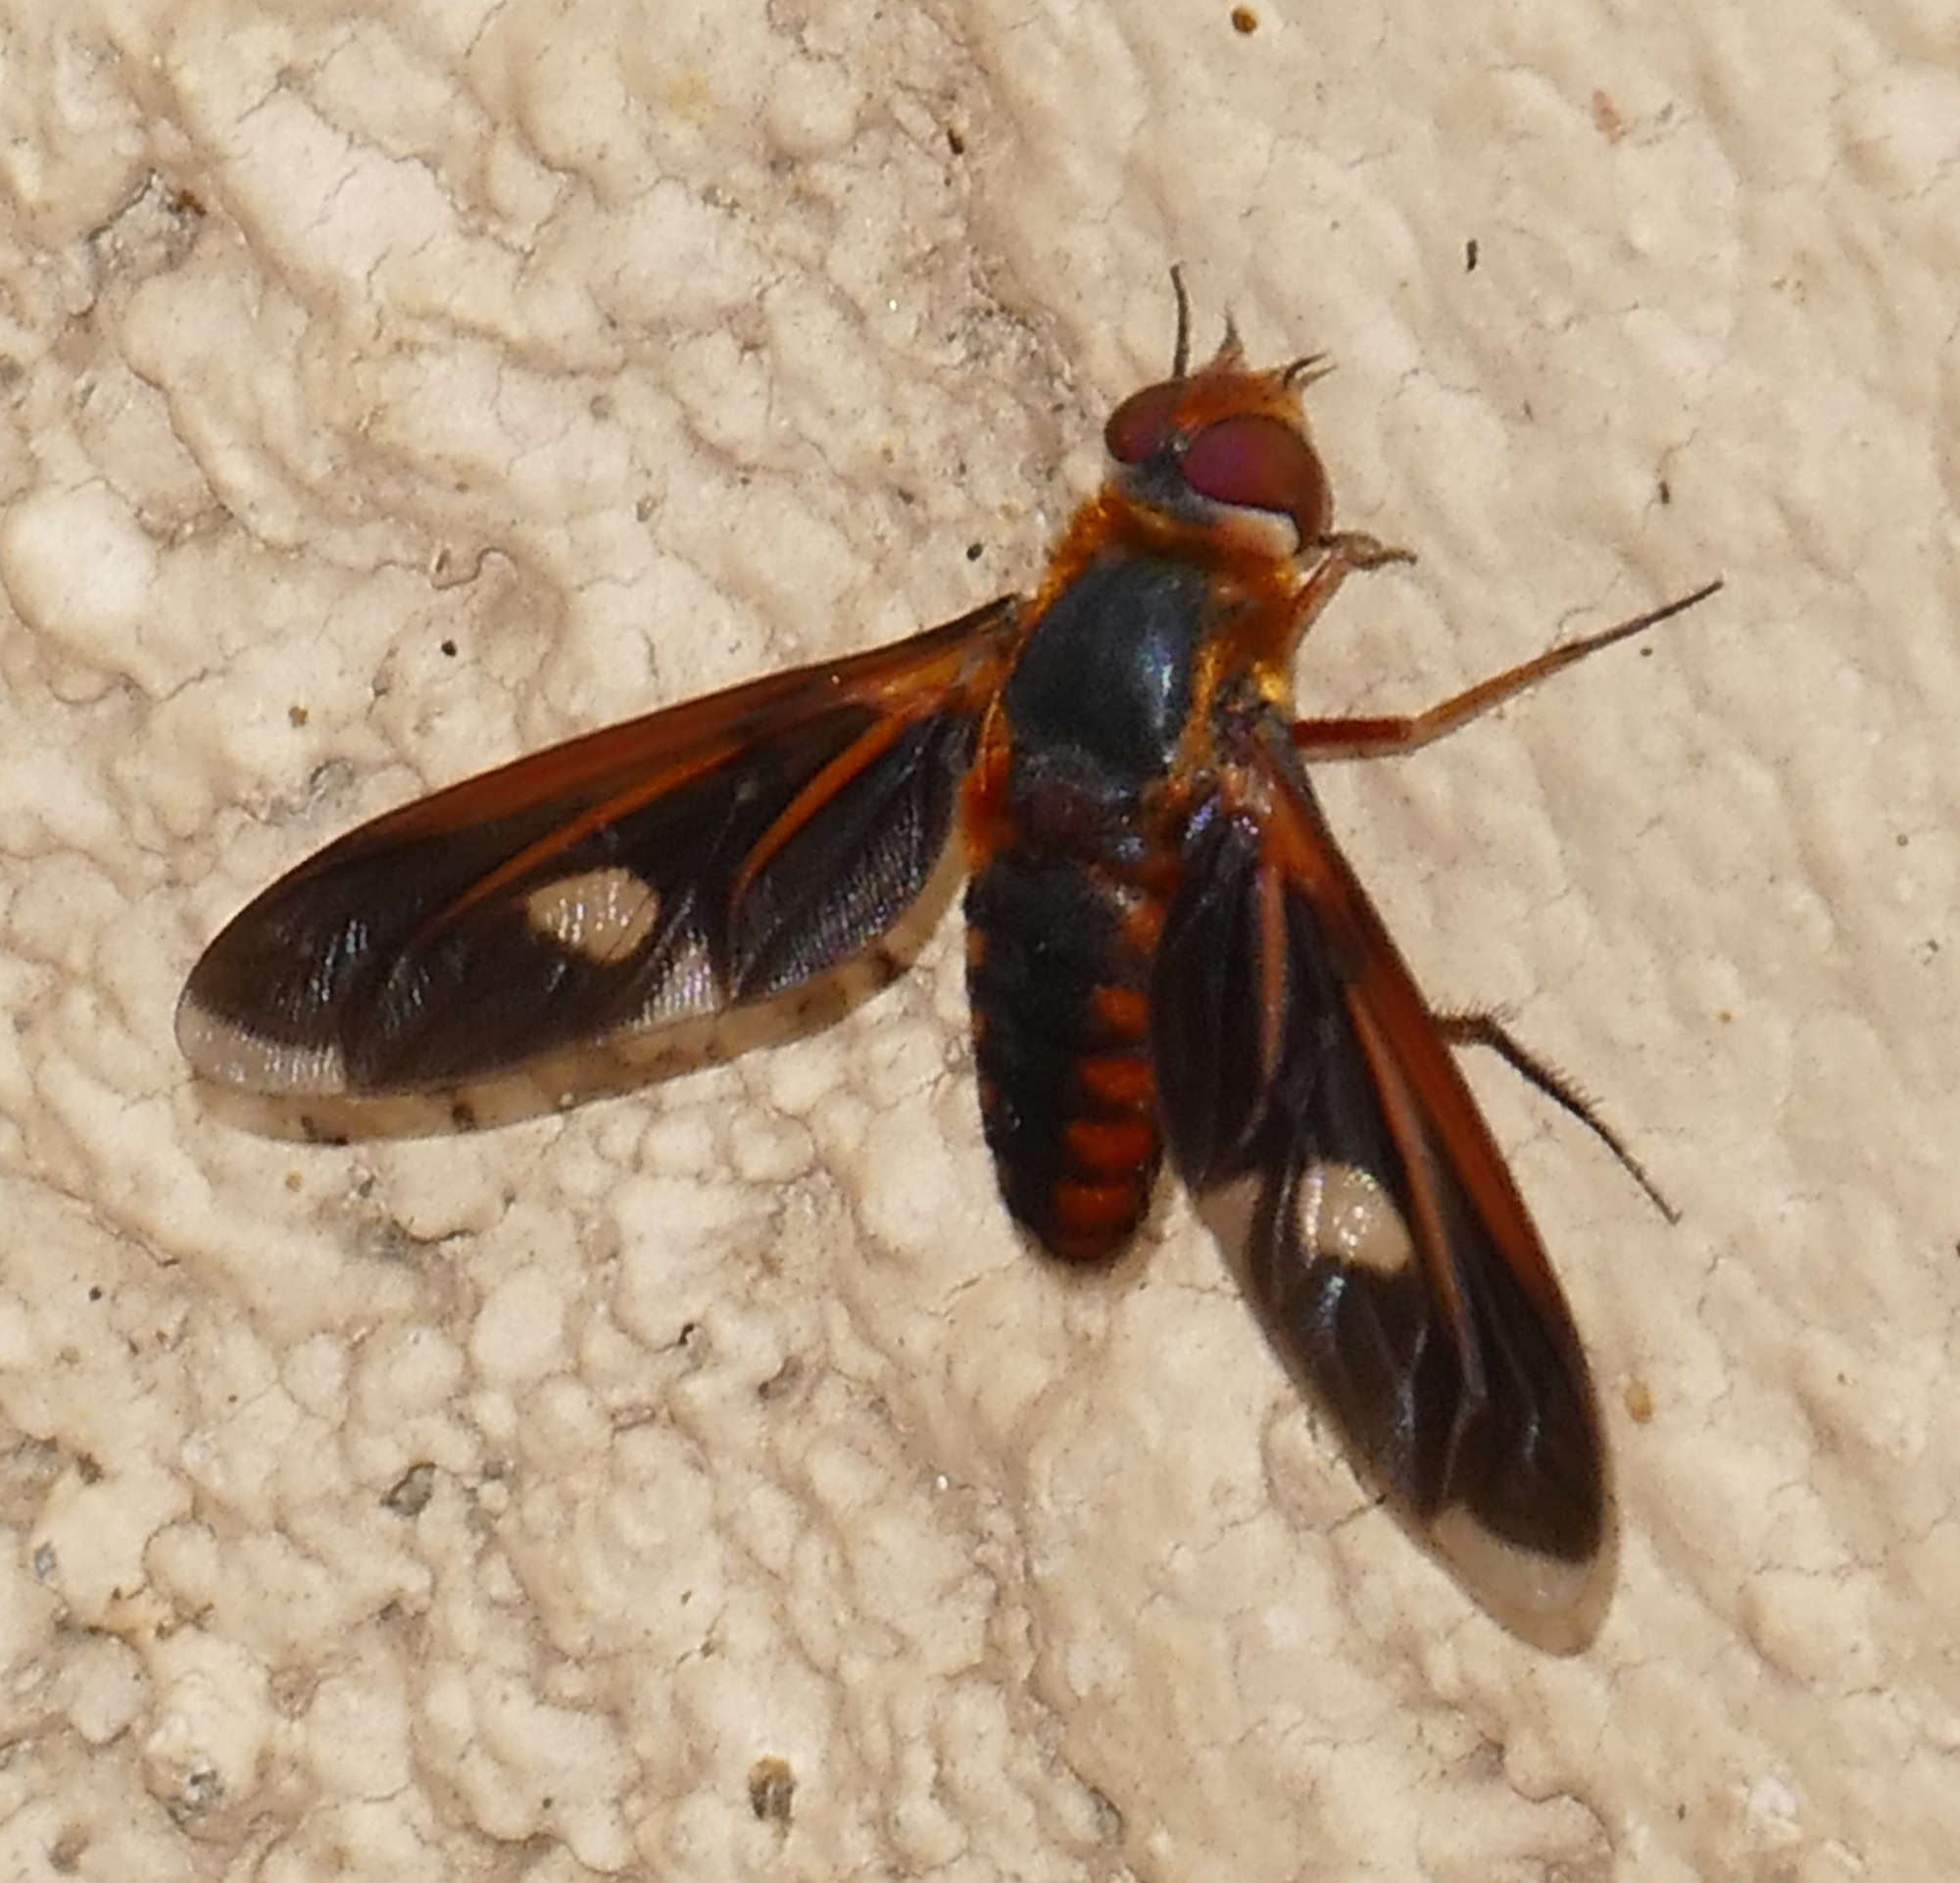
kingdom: Animalia
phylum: Arthropoda
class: Insecta
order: Diptera
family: Bombyliidae
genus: Poecilanthrax
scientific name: Poecilanthrax effrenus
